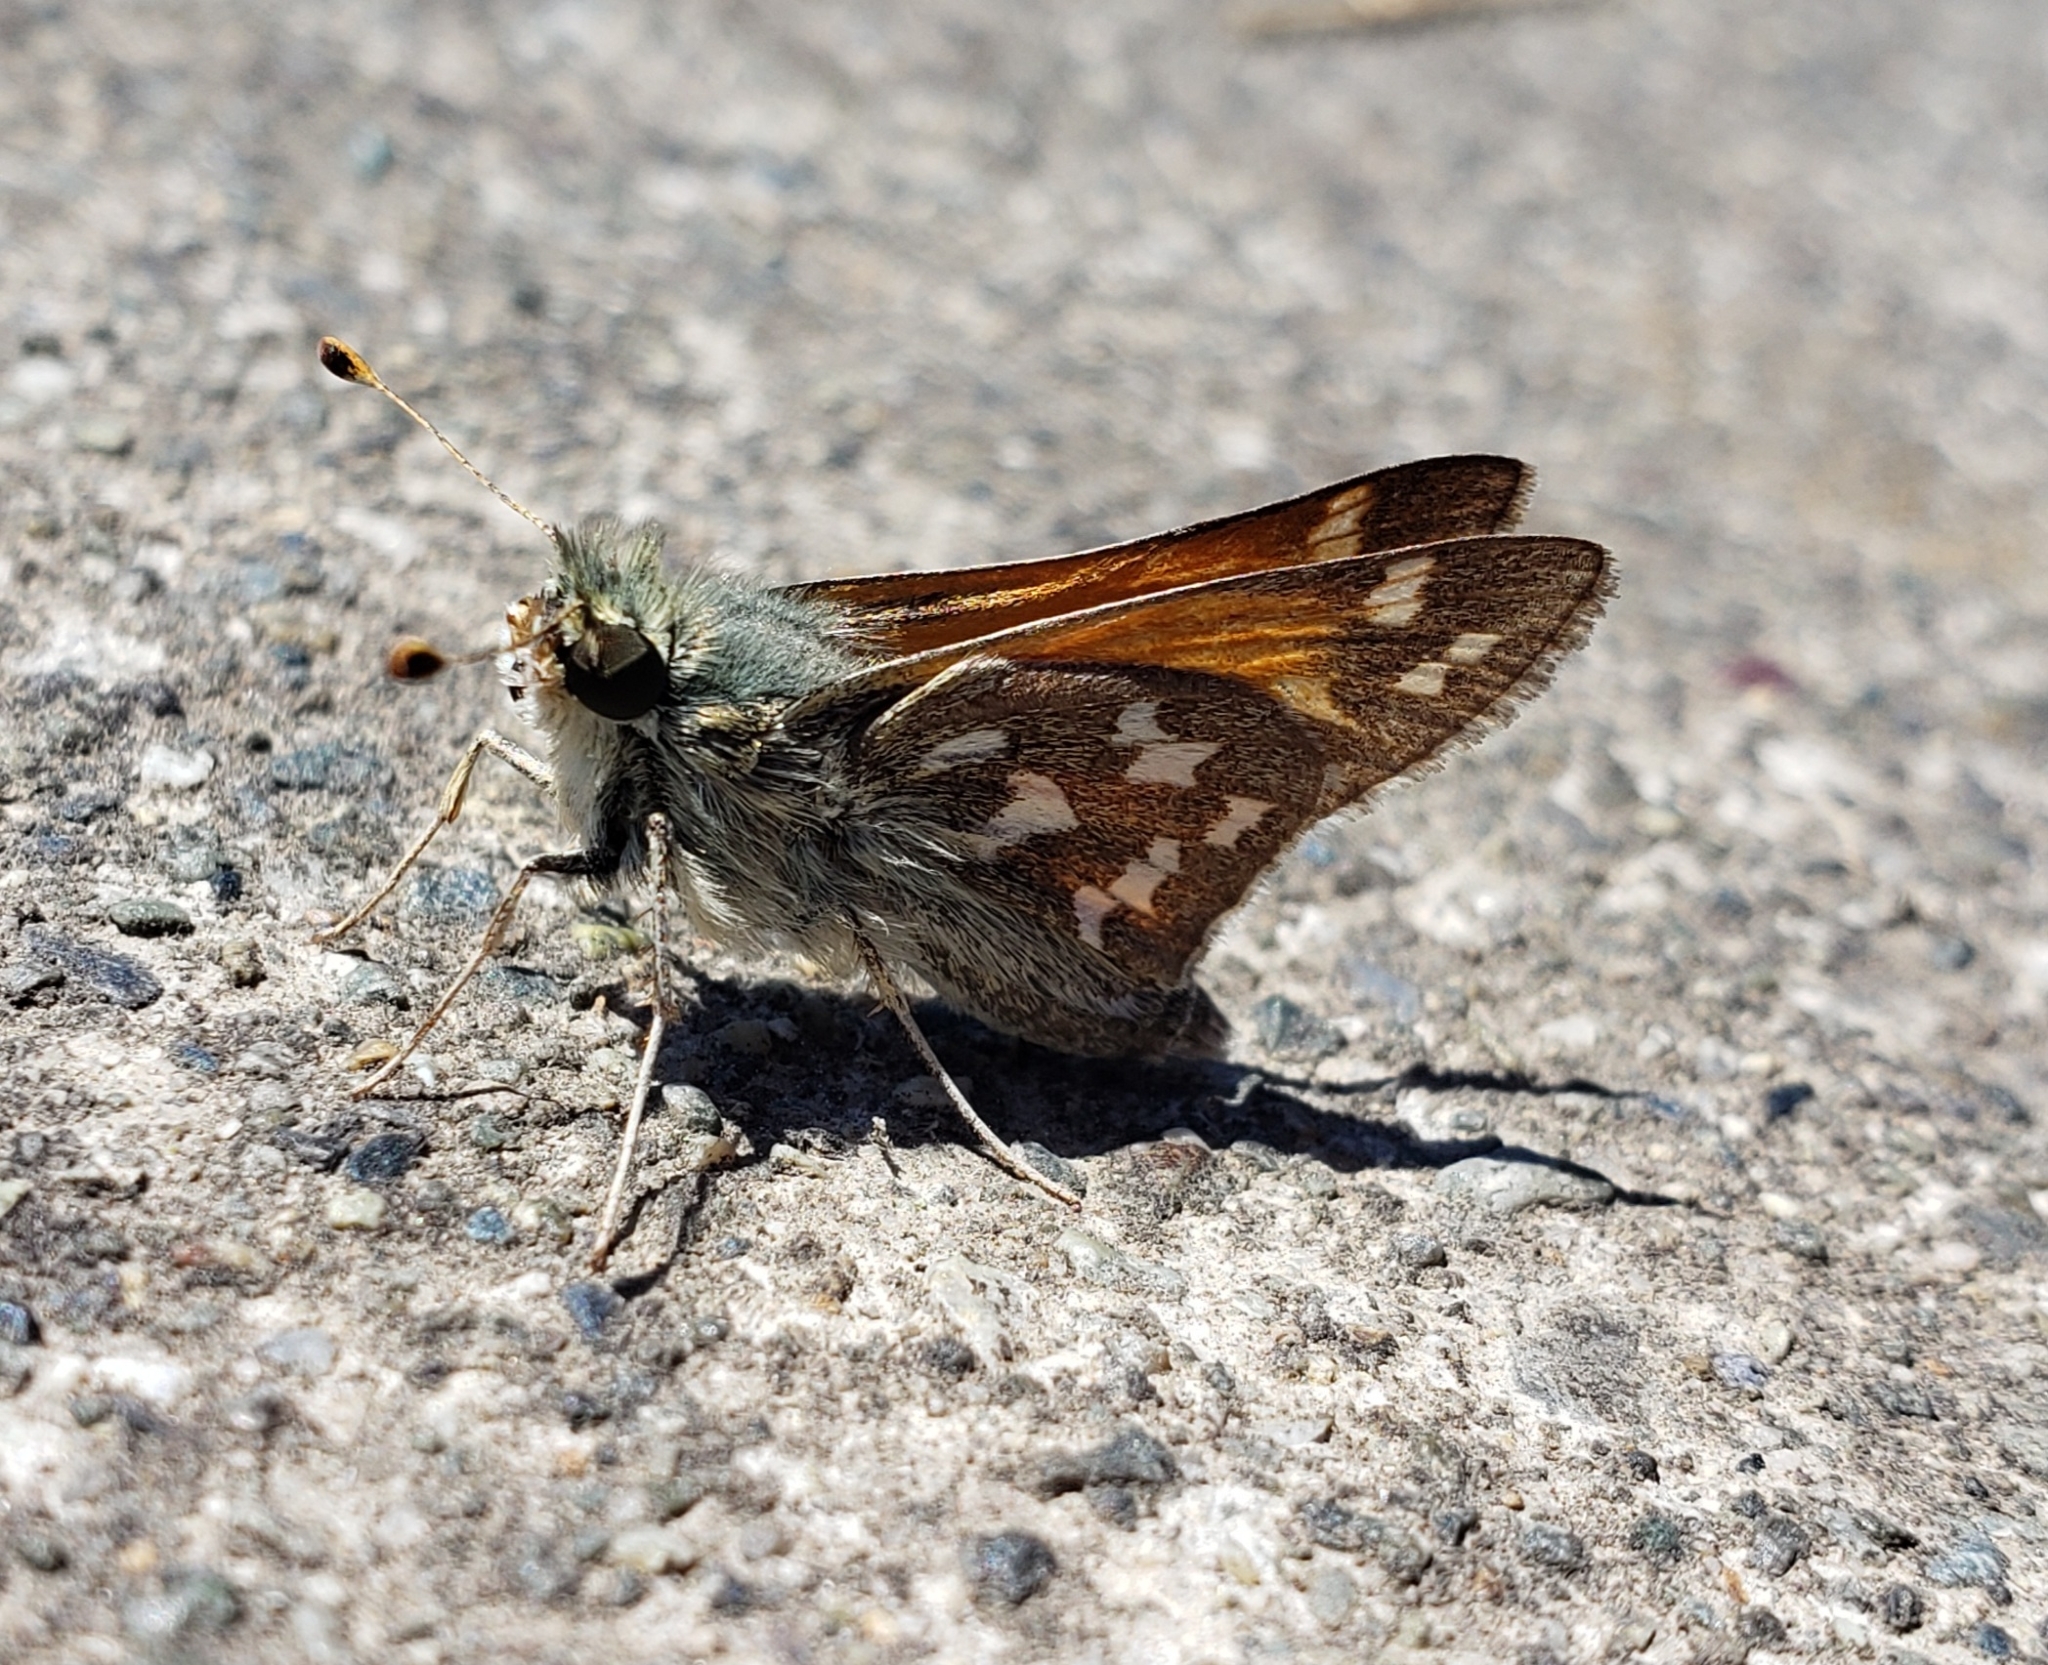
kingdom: Animalia
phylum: Arthropoda
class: Insecta
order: Lepidoptera
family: Hesperiidae
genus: Hesperia
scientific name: Hesperia juba
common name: Juba skipper
